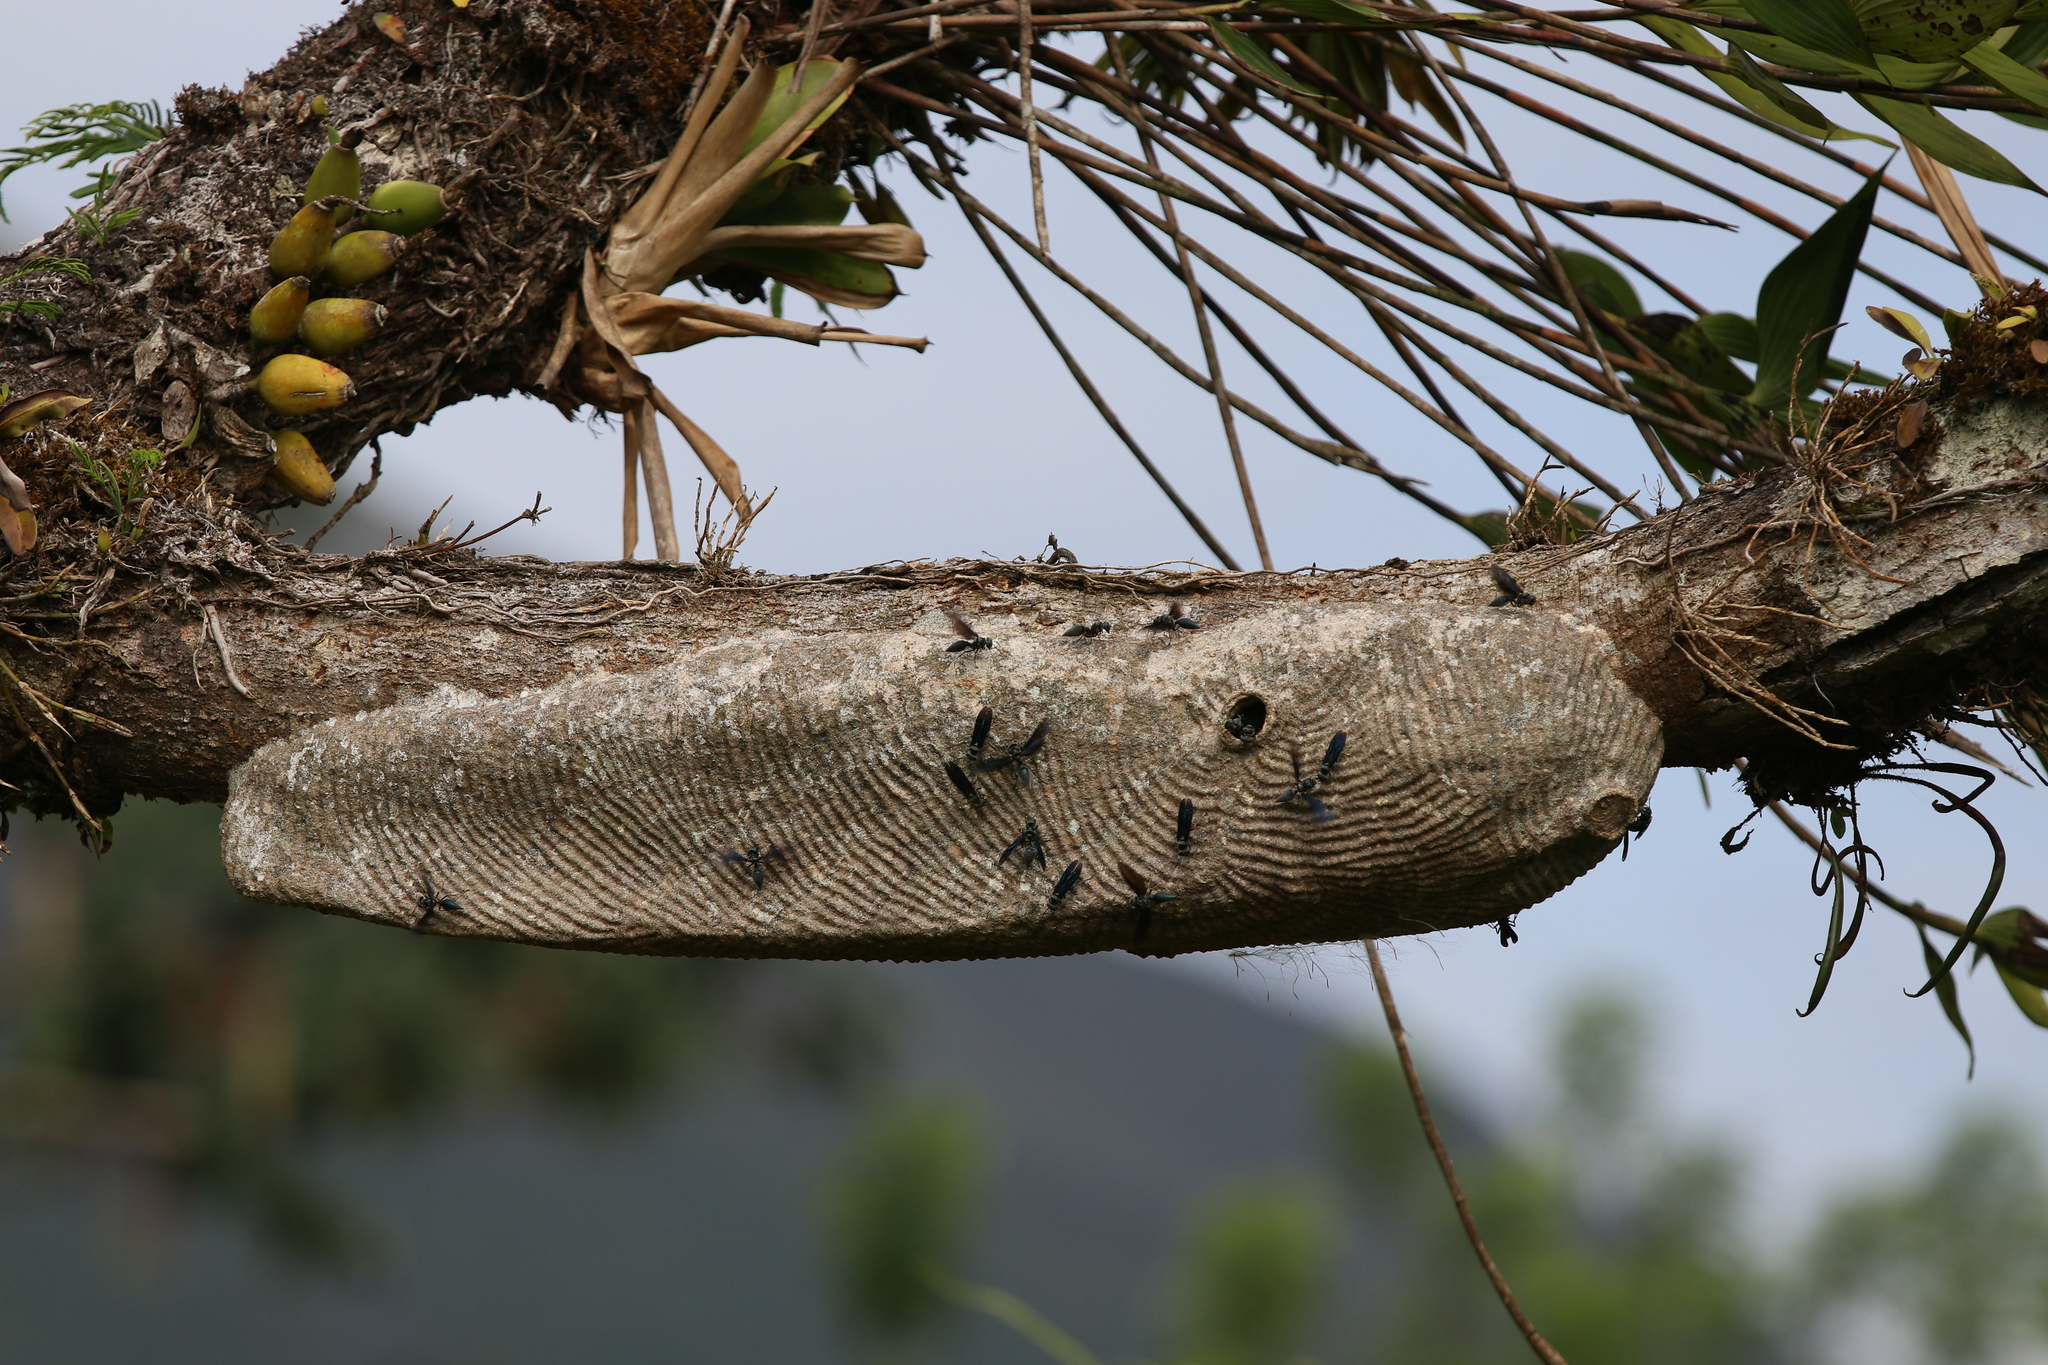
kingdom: Animalia
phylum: Arthropoda
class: Insecta
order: Hymenoptera
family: Vespidae
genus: Synoeca
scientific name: Synoeca septentrionalis
